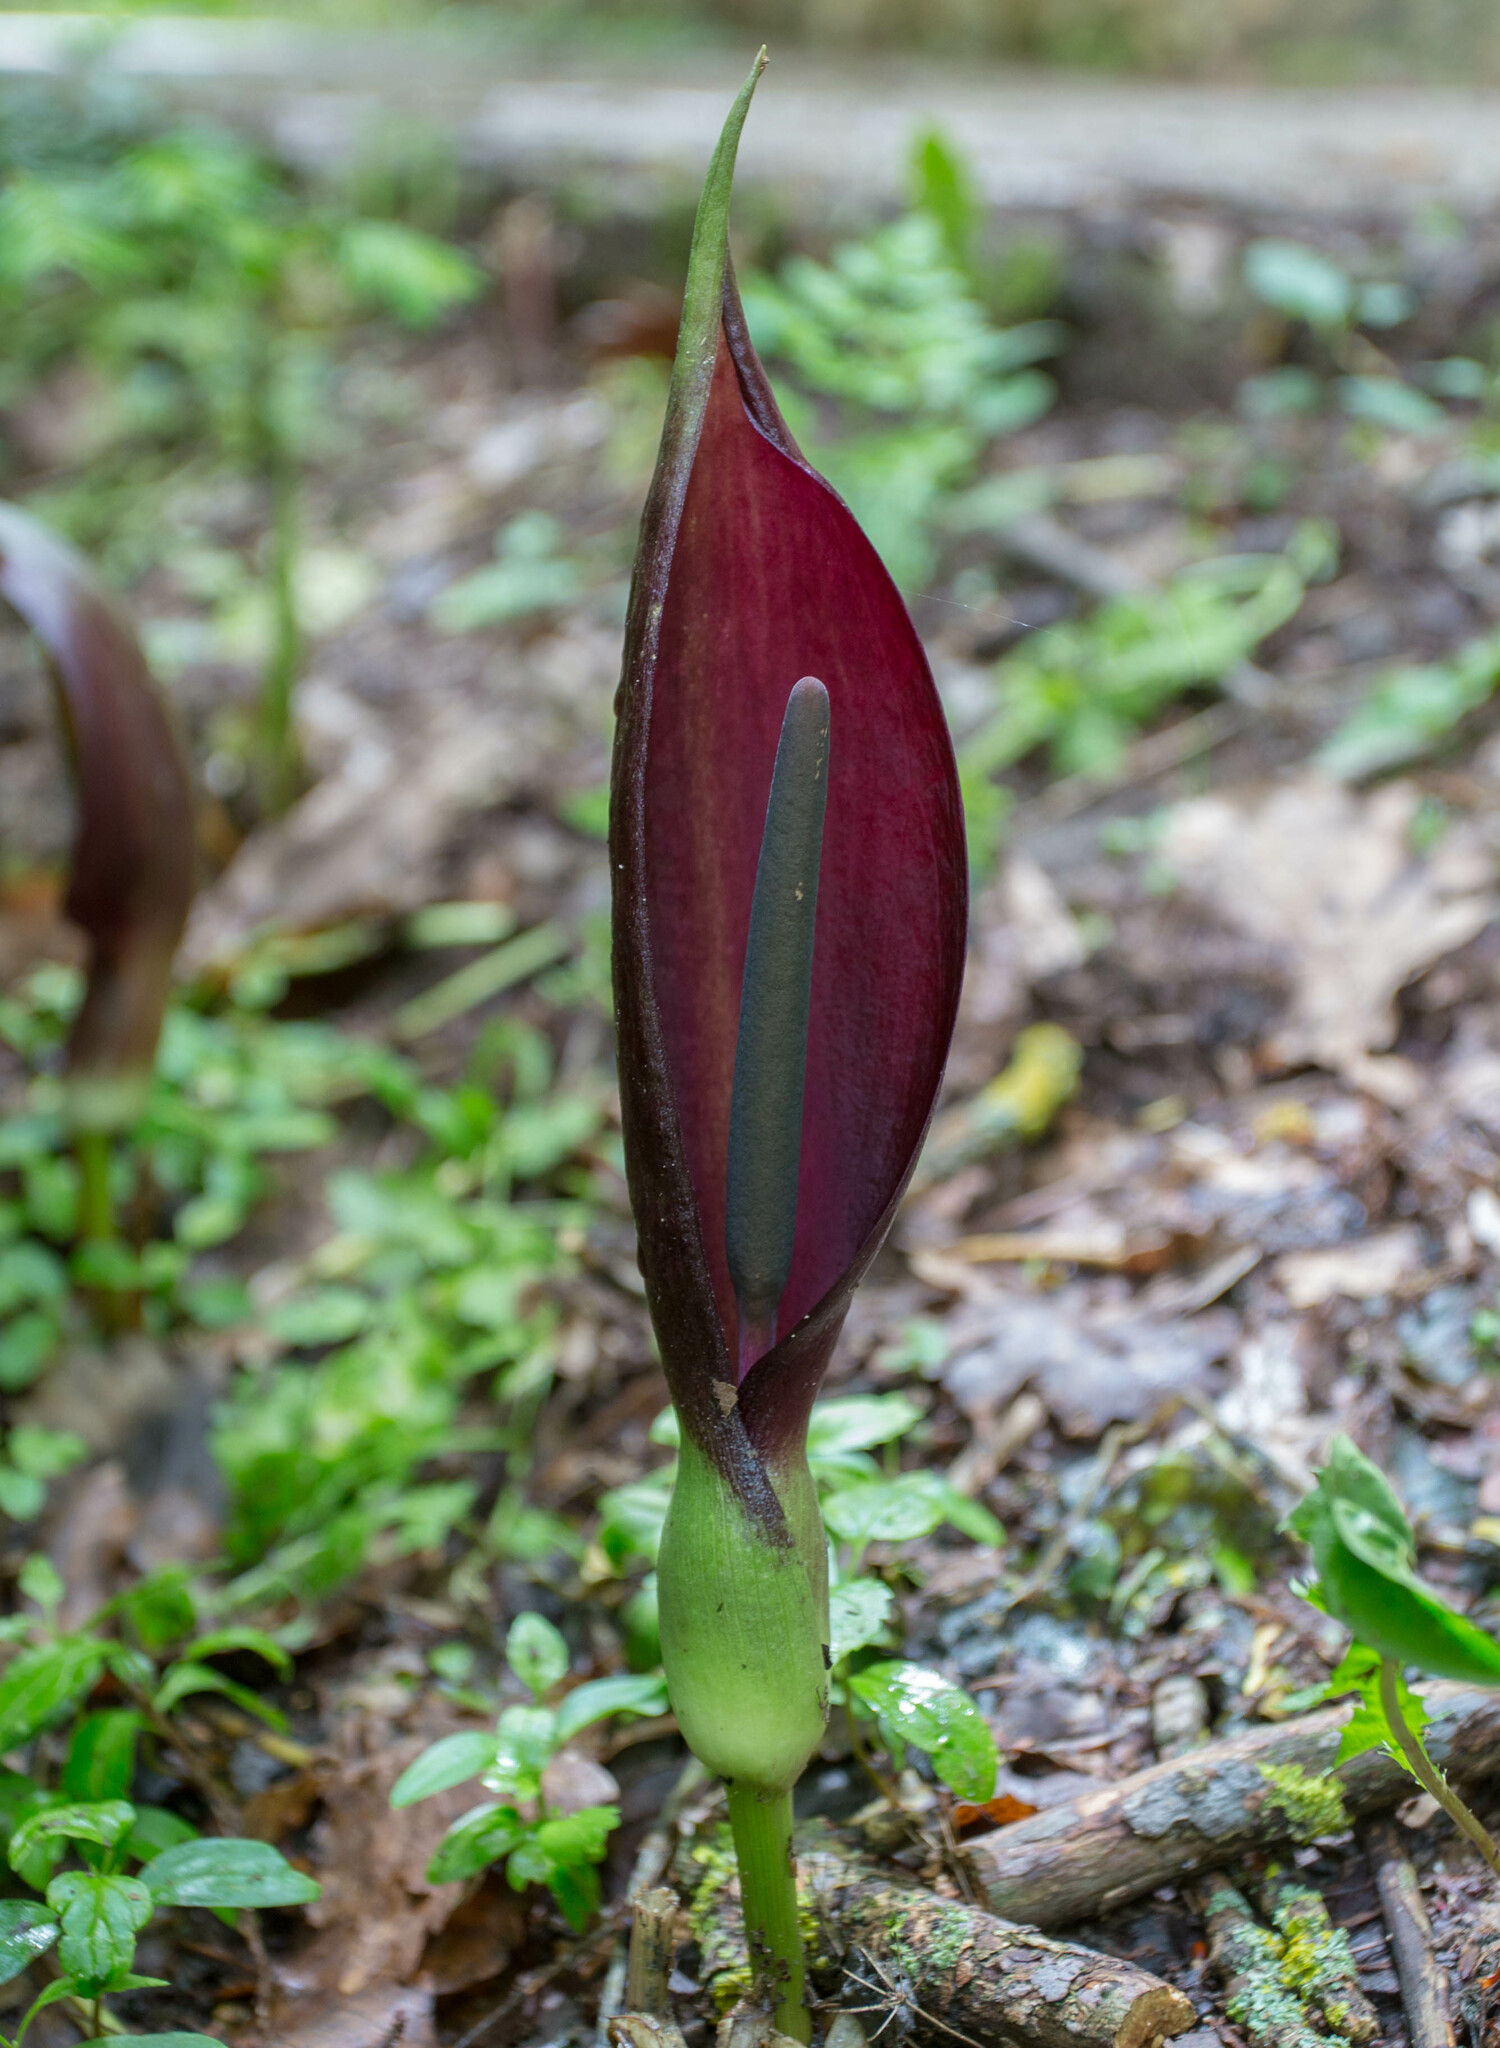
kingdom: Plantae
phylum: Tracheophyta
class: Liliopsida
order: Alismatales
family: Araceae
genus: Arum
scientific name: Arum orientale
